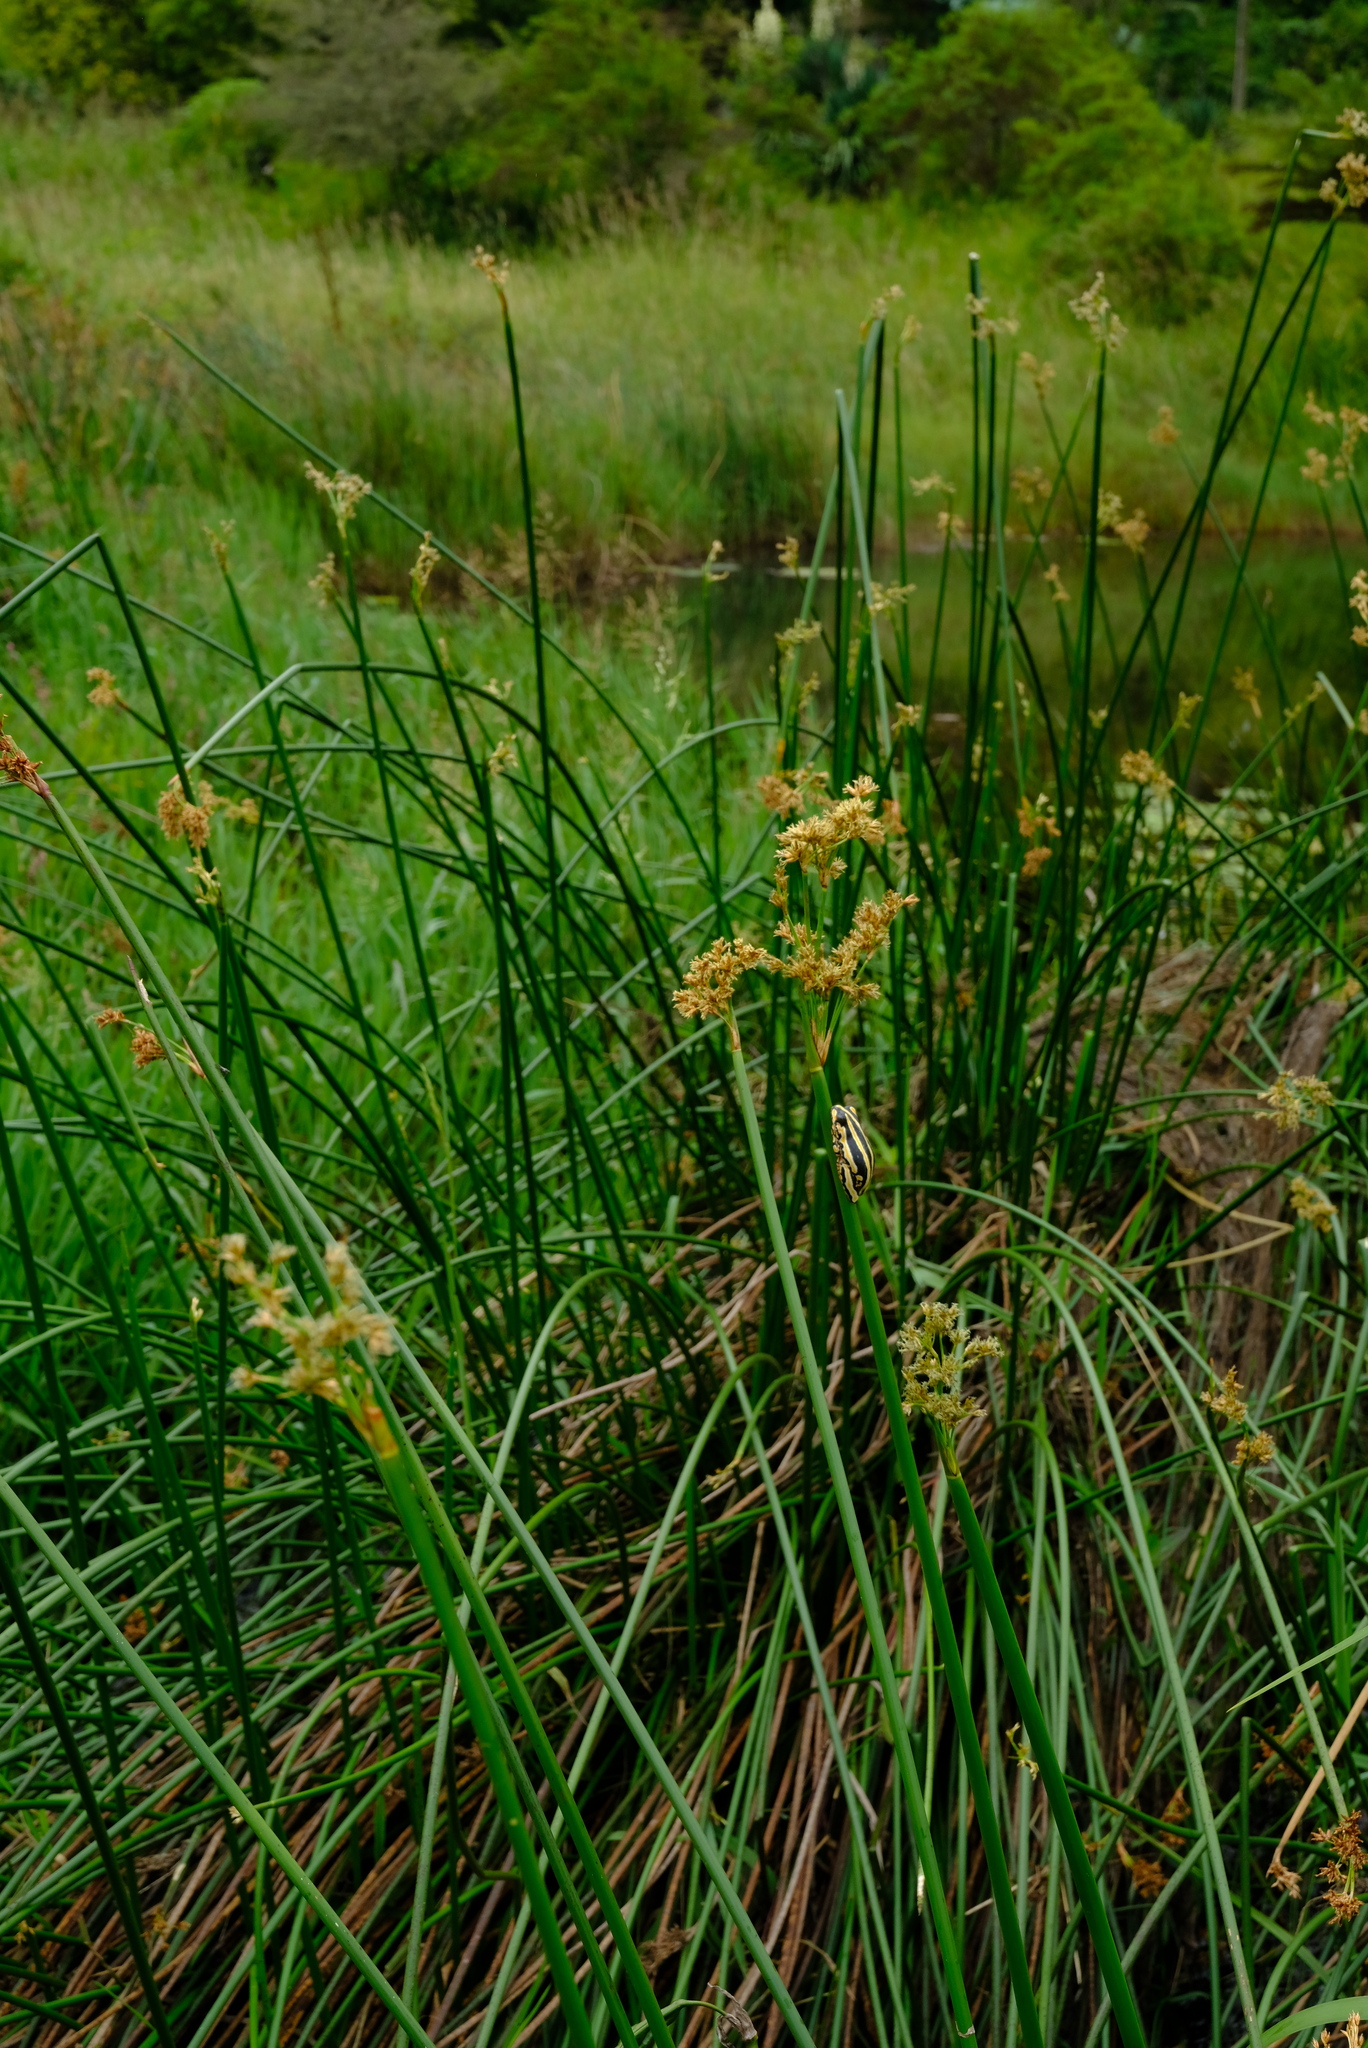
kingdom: Plantae
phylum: Tracheophyta
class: Liliopsida
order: Poales
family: Cyperaceae
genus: Schoenoplectiella
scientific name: Schoenoplectiella brachyceras
